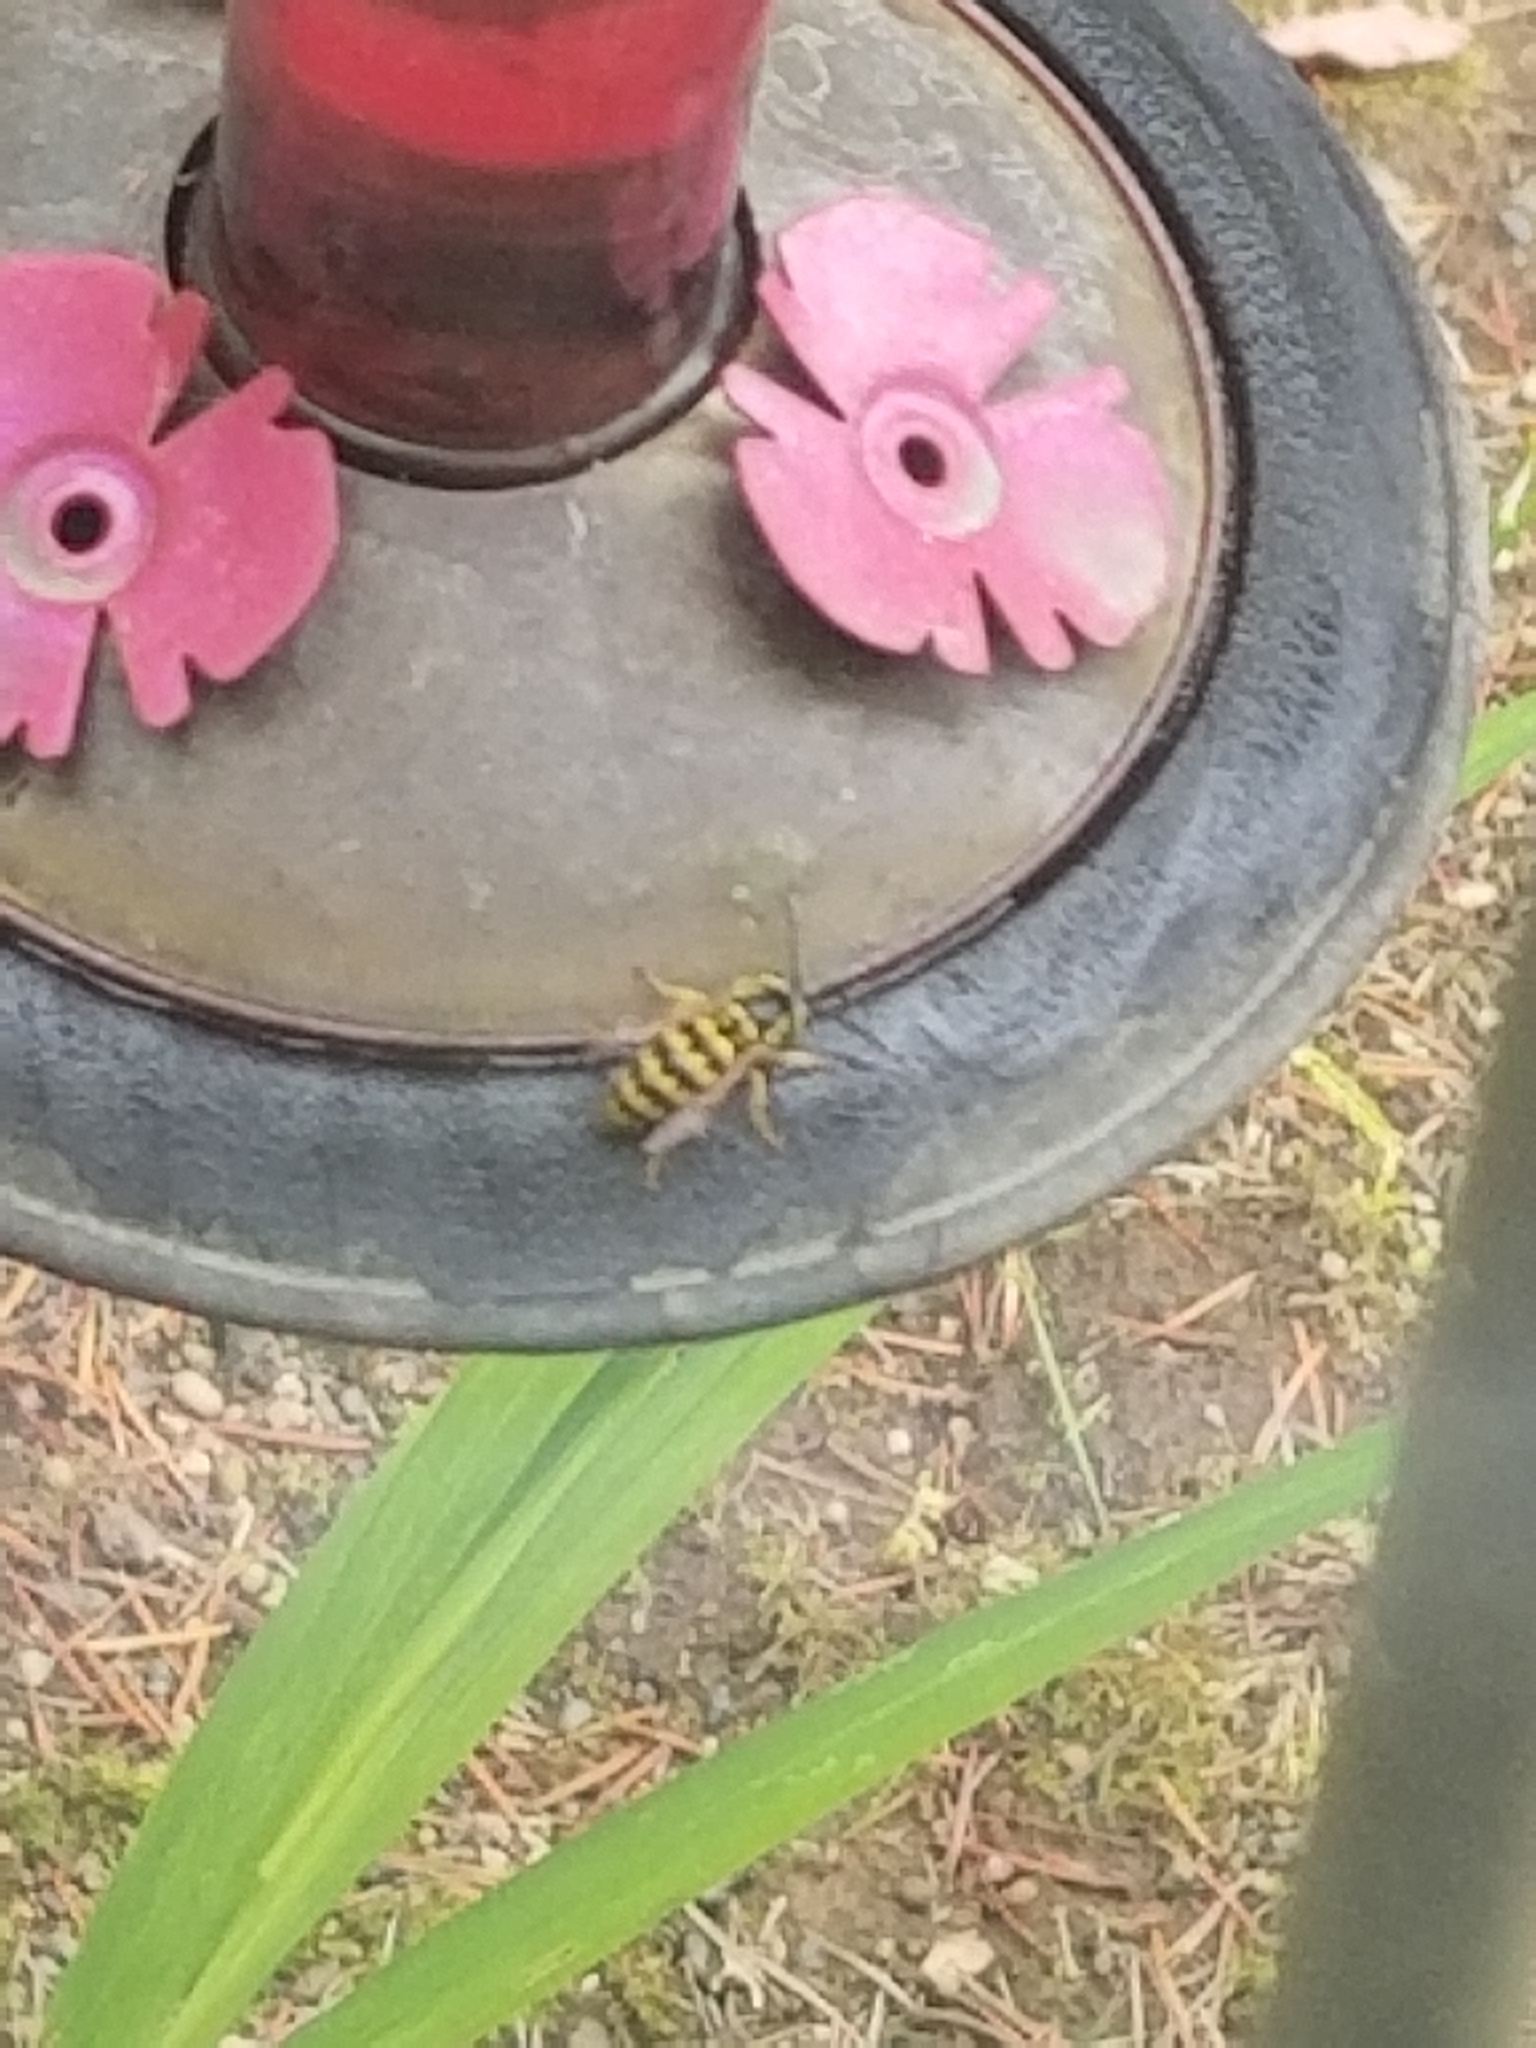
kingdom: Animalia
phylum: Arthropoda
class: Insecta
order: Hymenoptera
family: Vespidae
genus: Vespula
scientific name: Vespula pensylvanica
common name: Western yellowjacket
